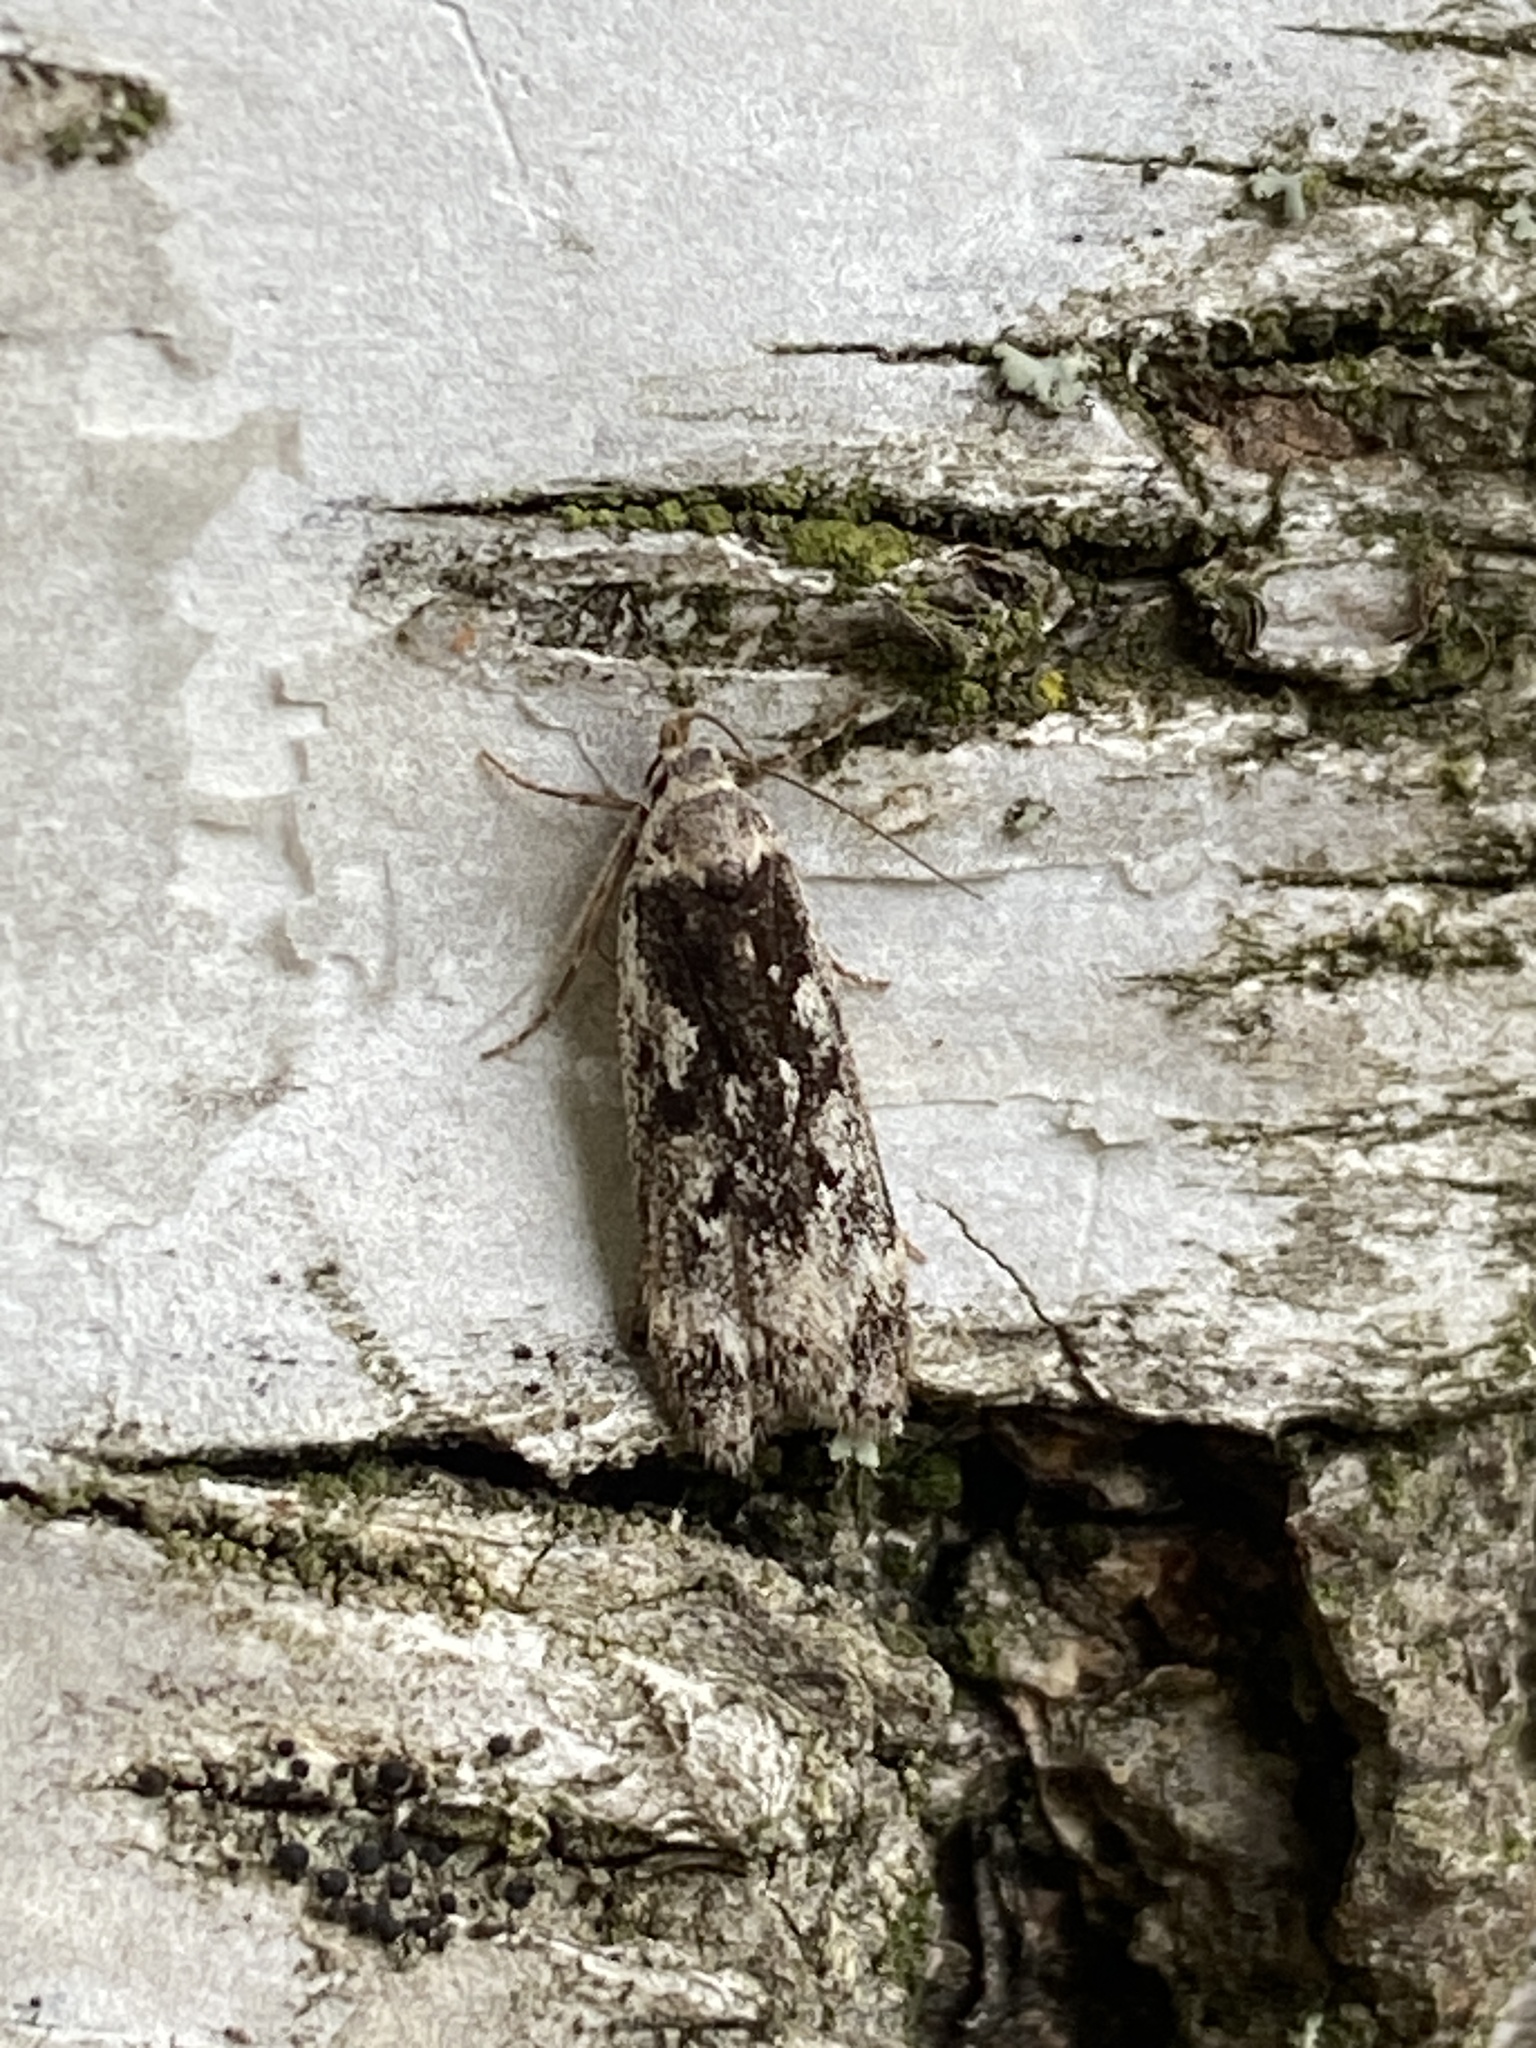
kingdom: Animalia
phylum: Arthropoda
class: Insecta
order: Lepidoptera
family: Gelechiidae
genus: Anacampsis
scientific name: Anacampsis blattariella
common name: Birch sober
